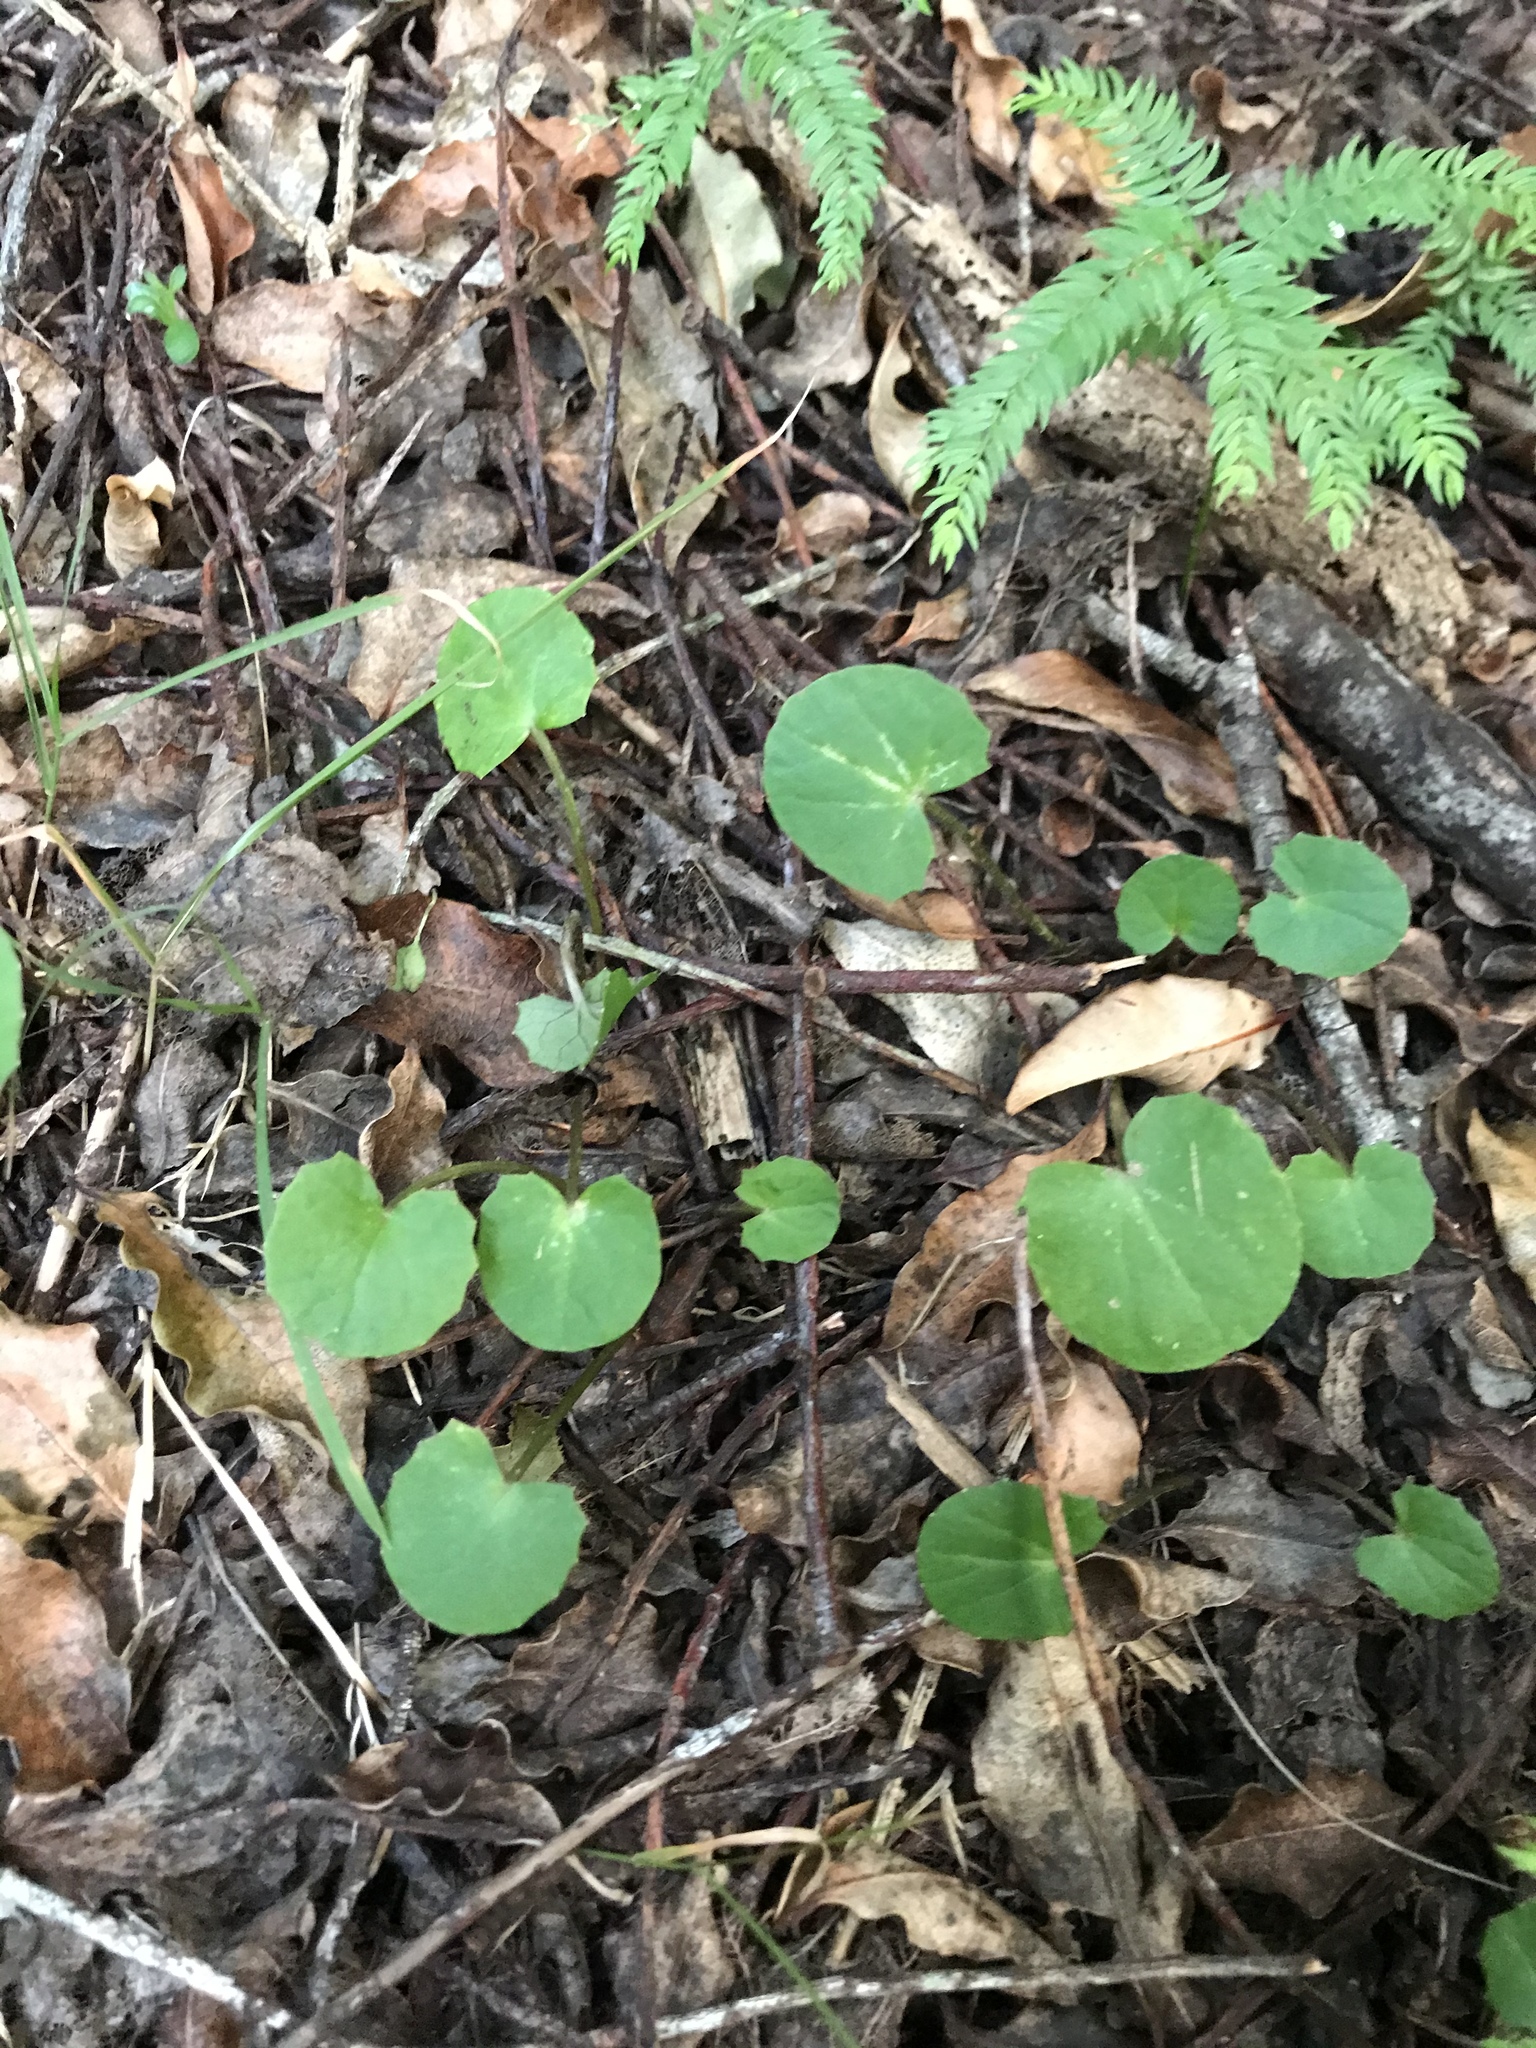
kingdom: Plantae
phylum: Tracheophyta
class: Magnoliopsida
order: Apiales
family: Apiaceae
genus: Centella
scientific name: Centella uniflora
